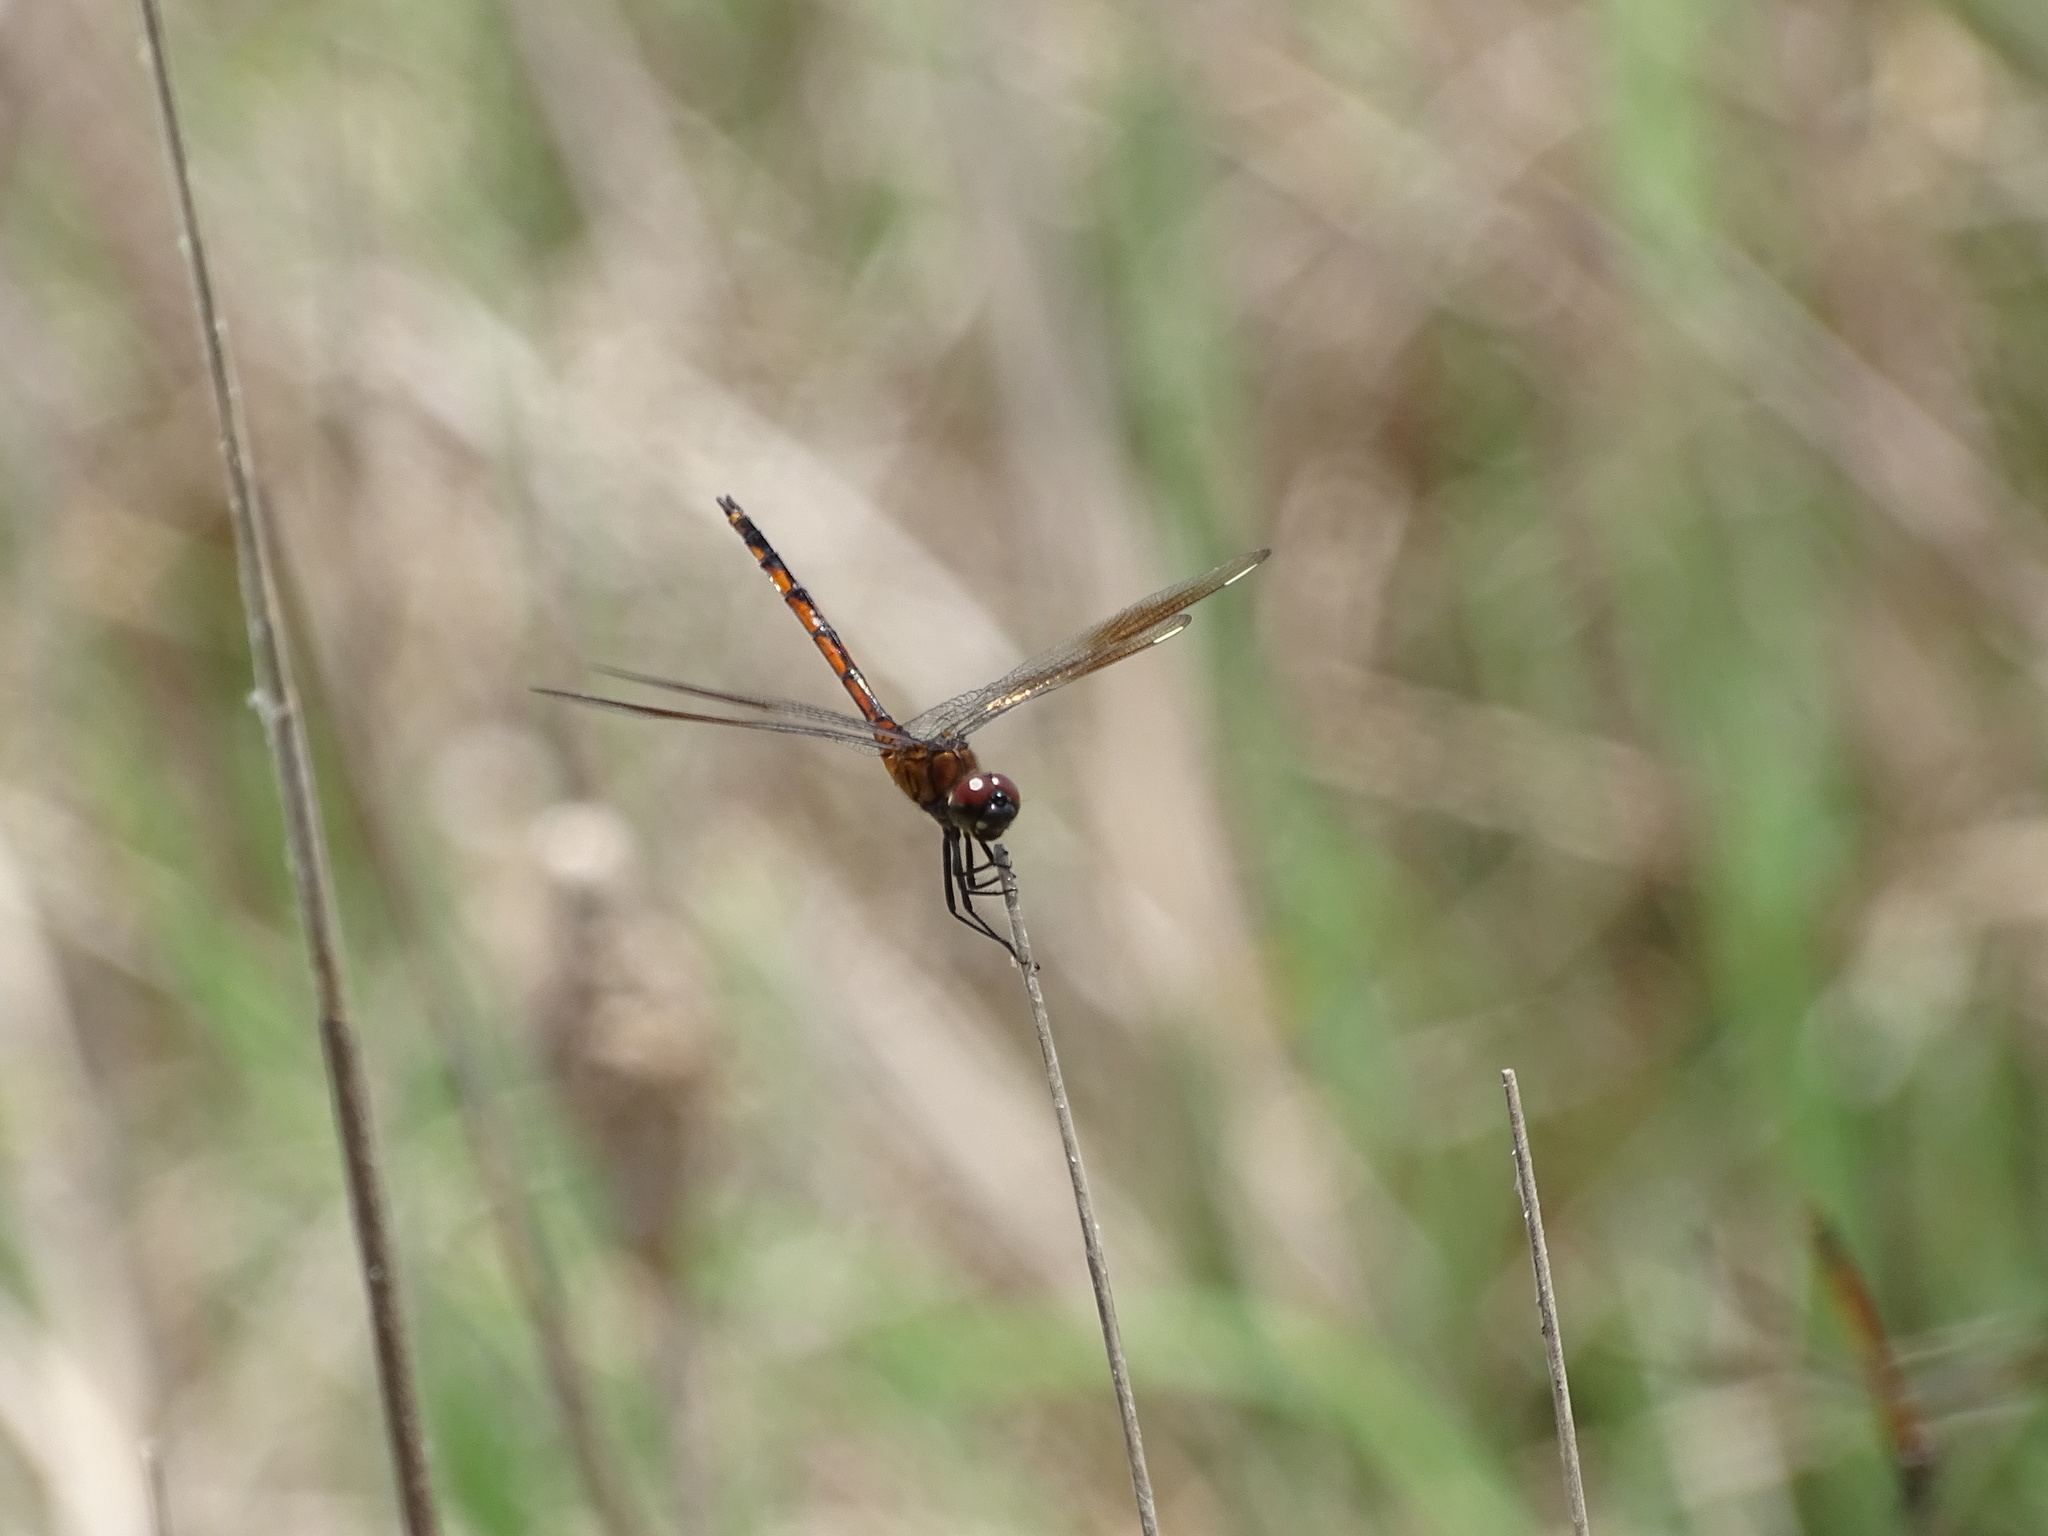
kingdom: Animalia
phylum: Arthropoda
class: Insecta
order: Odonata
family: Libellulidae
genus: Brachymesia
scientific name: Brachymesia gravida
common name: Four-spotted pennant
